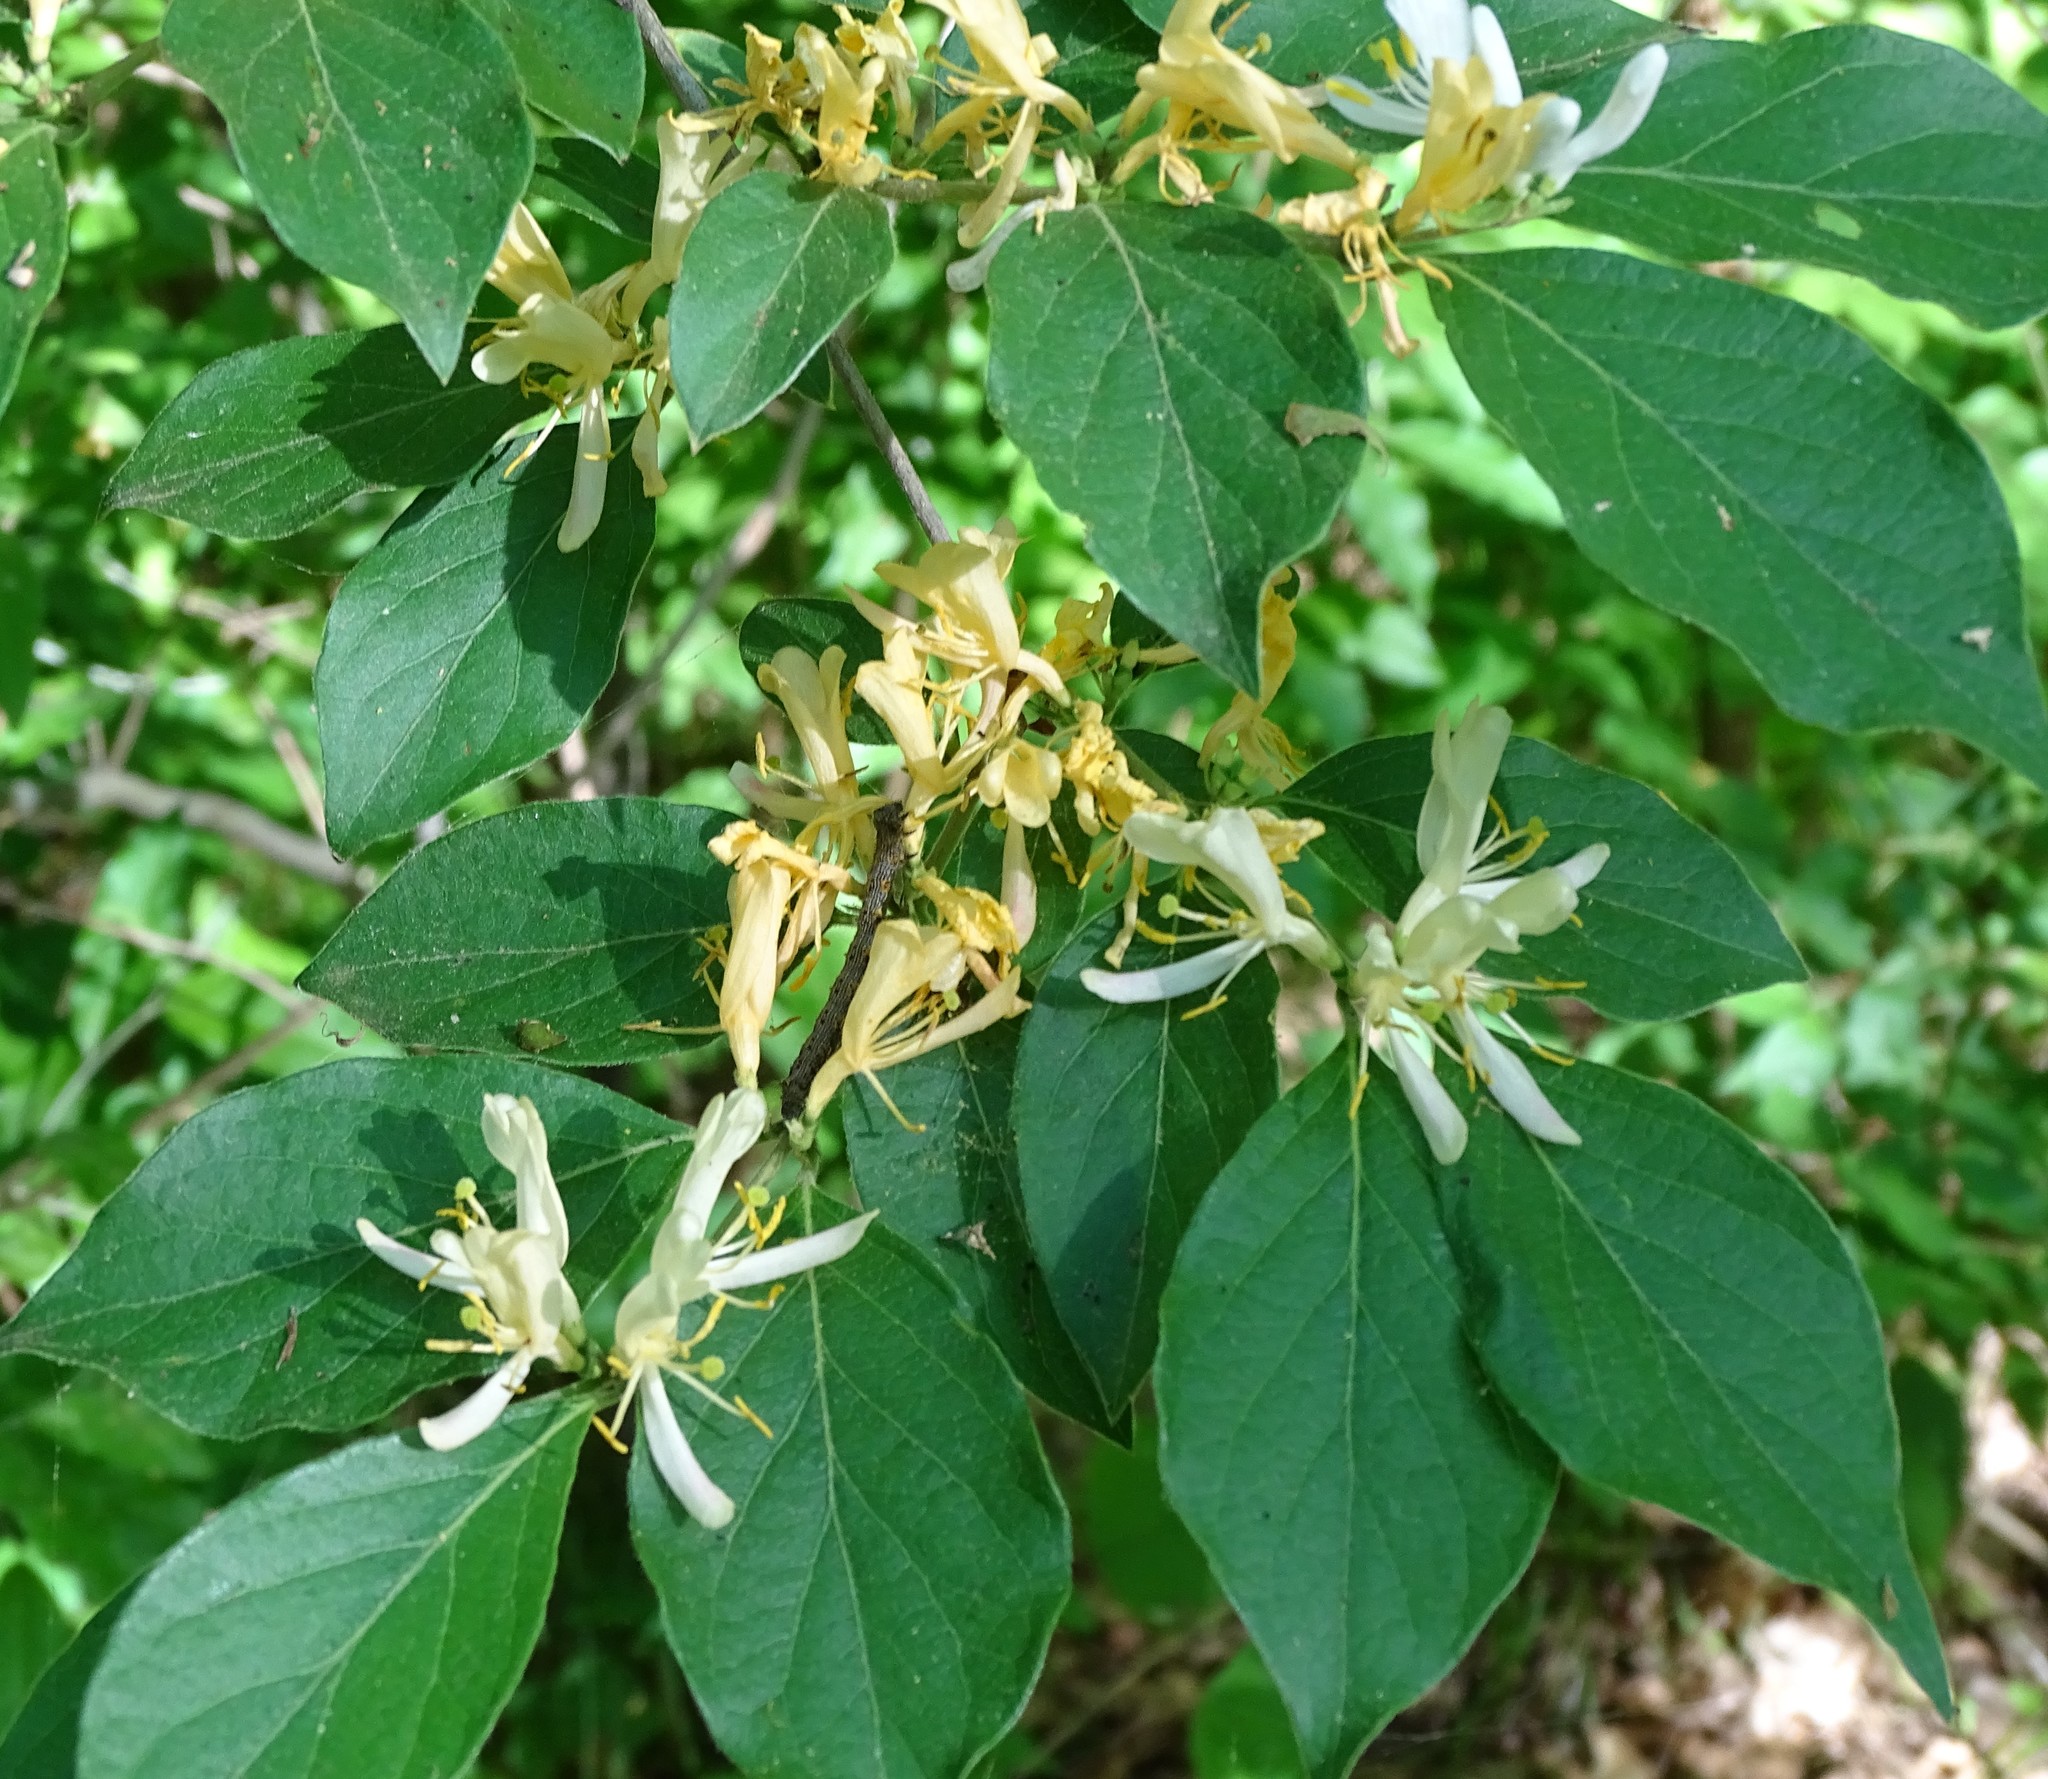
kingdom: Plantae
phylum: Tracheophyta
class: Magnoliopsida
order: Dipsacales
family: Caprifoliaceae
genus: Lonicera
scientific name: Lonicera maackii
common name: Amur honeysuckle
